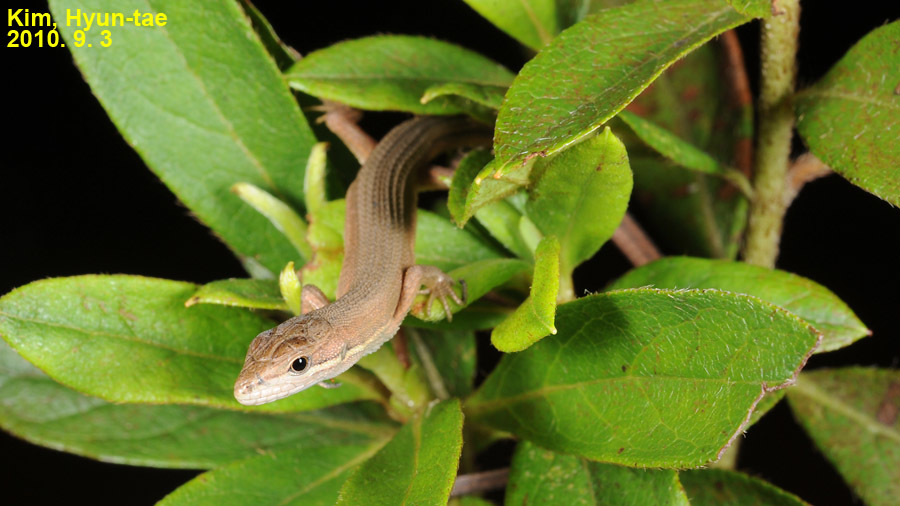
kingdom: Animalia
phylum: Chordata
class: Squamata
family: Lacertidae
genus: Takydromus
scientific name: Takydromus wolteri
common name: Mountain grass lizard
